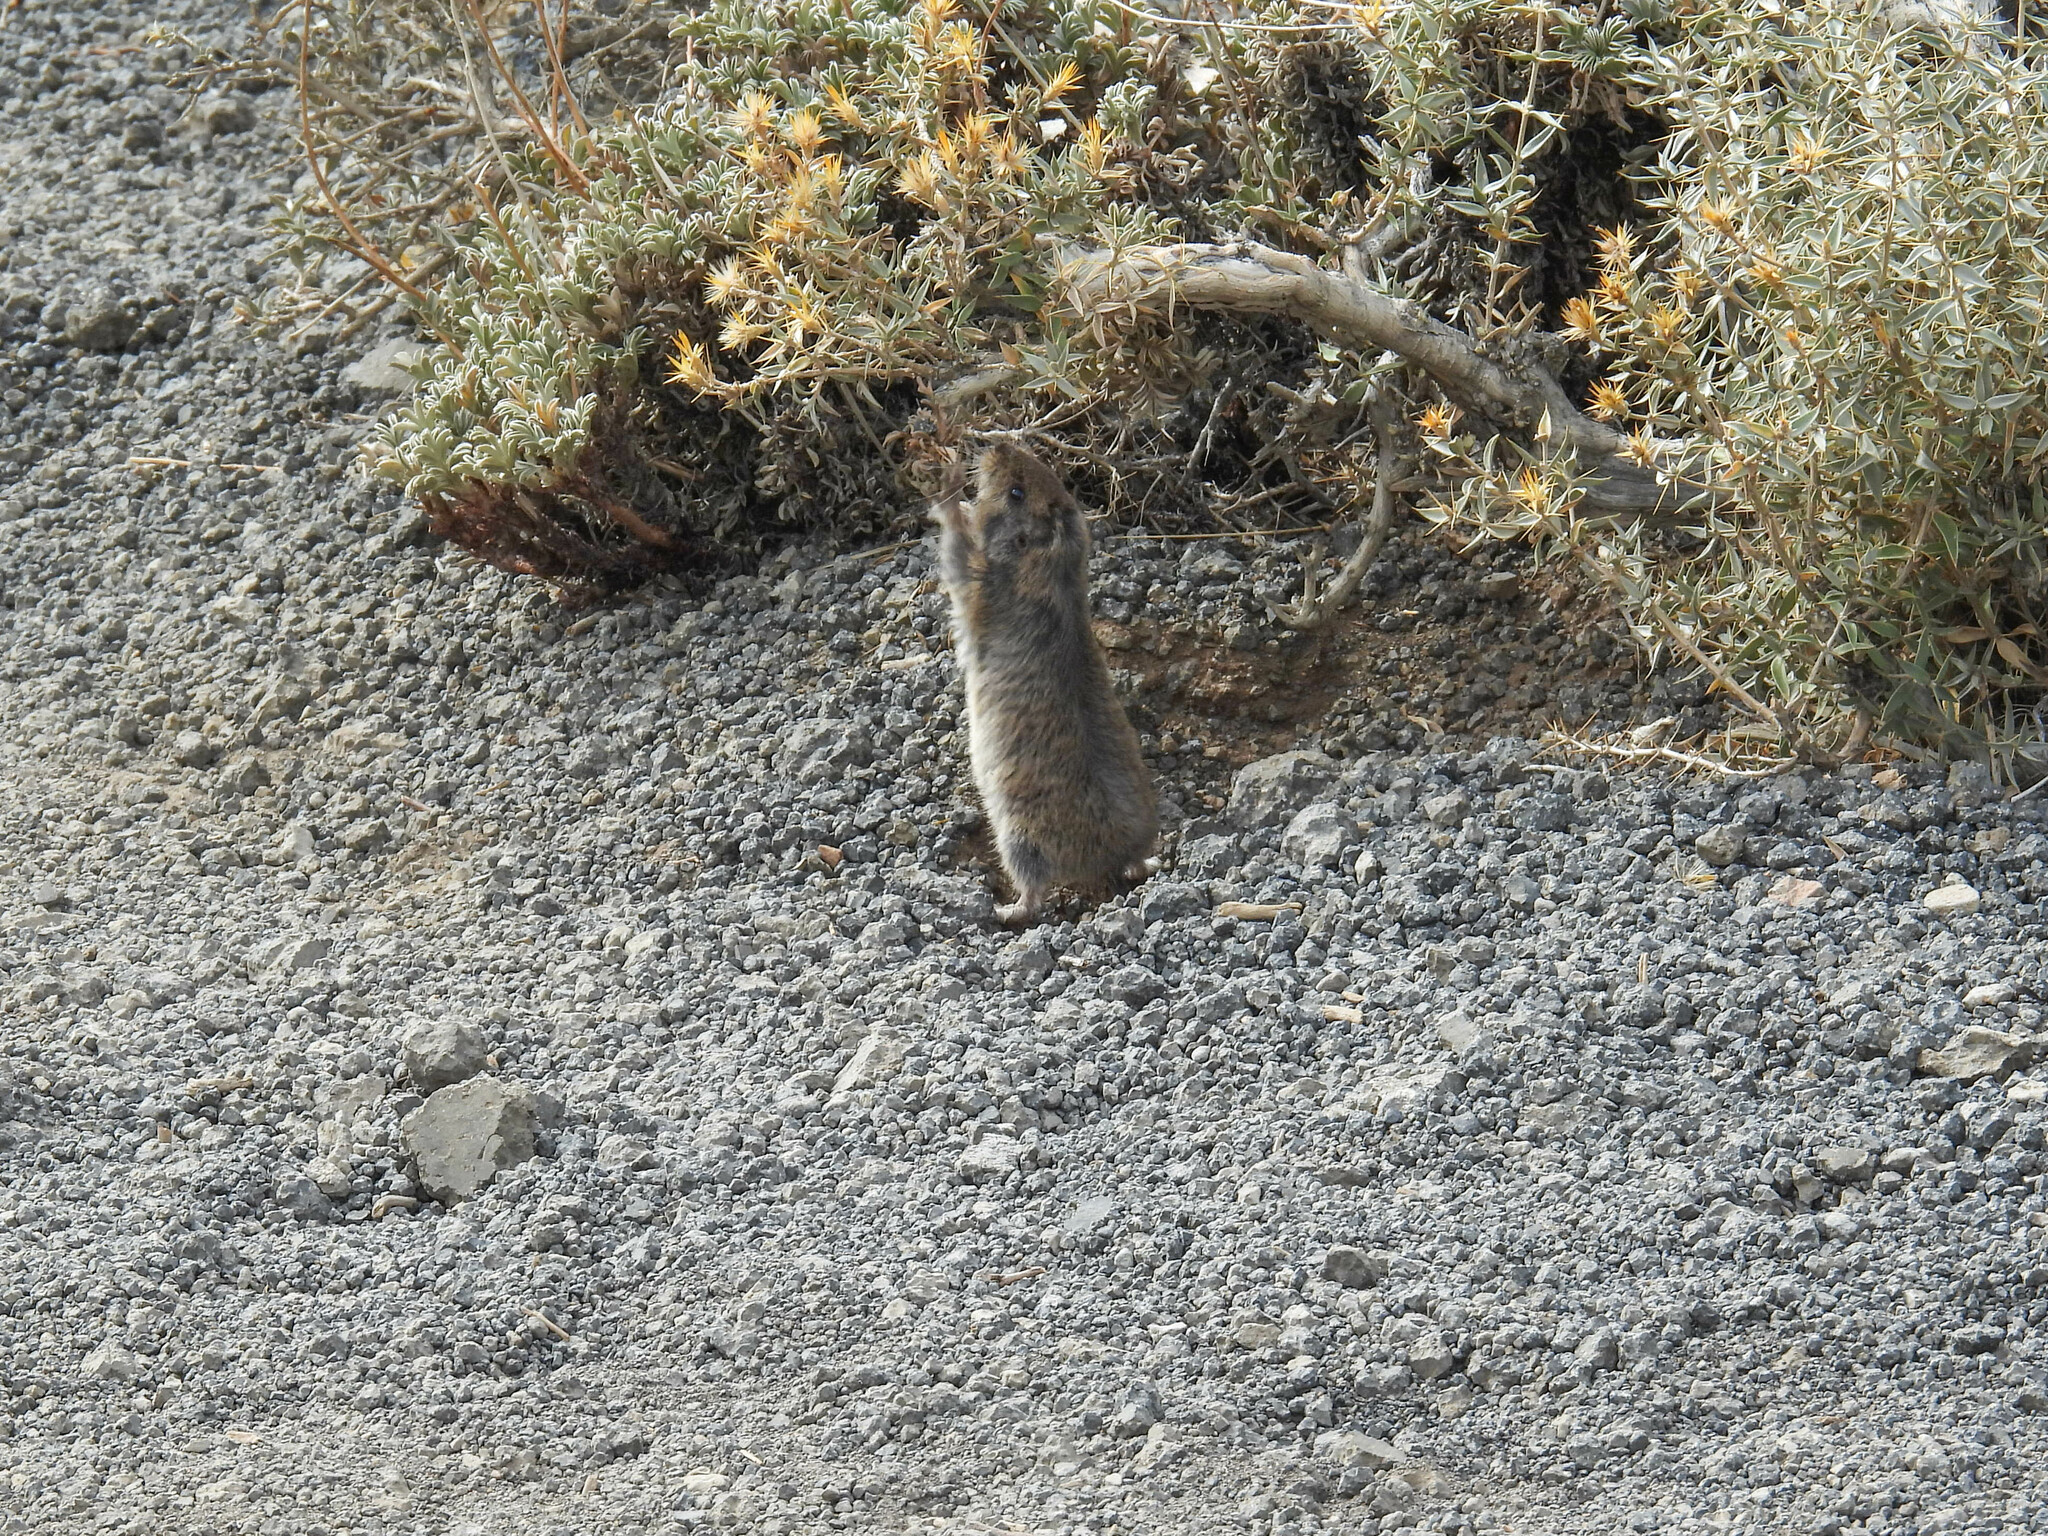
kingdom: Animalia
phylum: Chordata
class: Mammalia
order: Rodentia
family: Ctenomyidae
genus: Ctenomys
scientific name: Ctenomys maulinus
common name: Maule tuco-tuco
